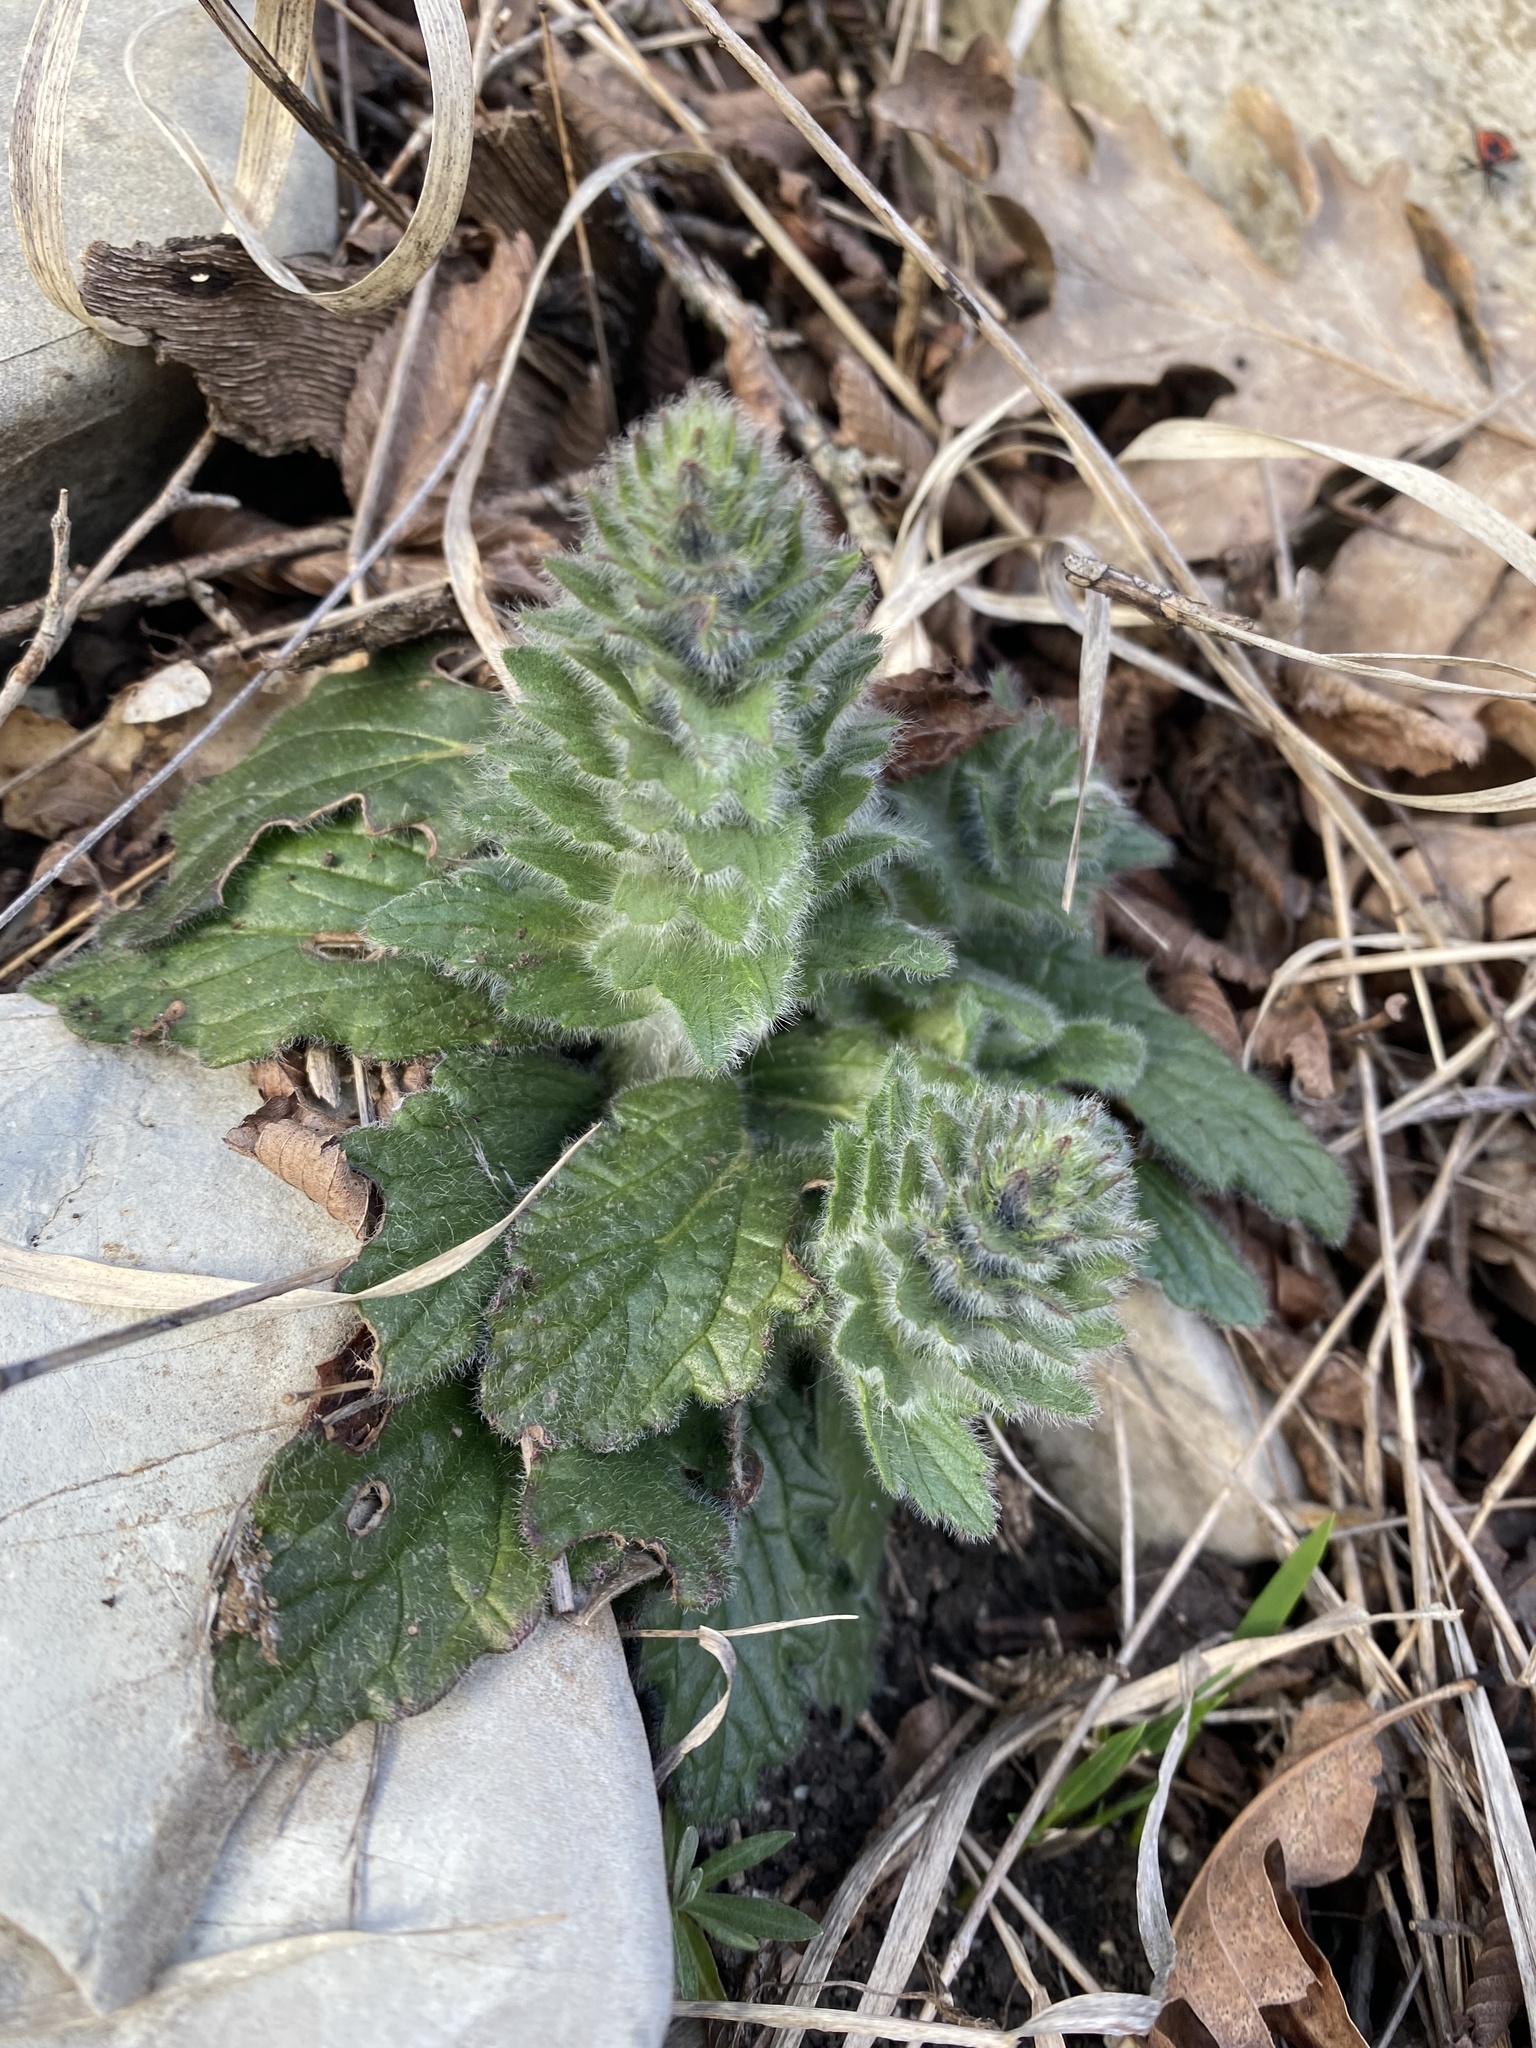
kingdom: Plantae
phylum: Tracheophyta
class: Magnoliopsida
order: Lamiales
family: Lamiaceae
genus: Ajuga
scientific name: Ajuga orientalis
